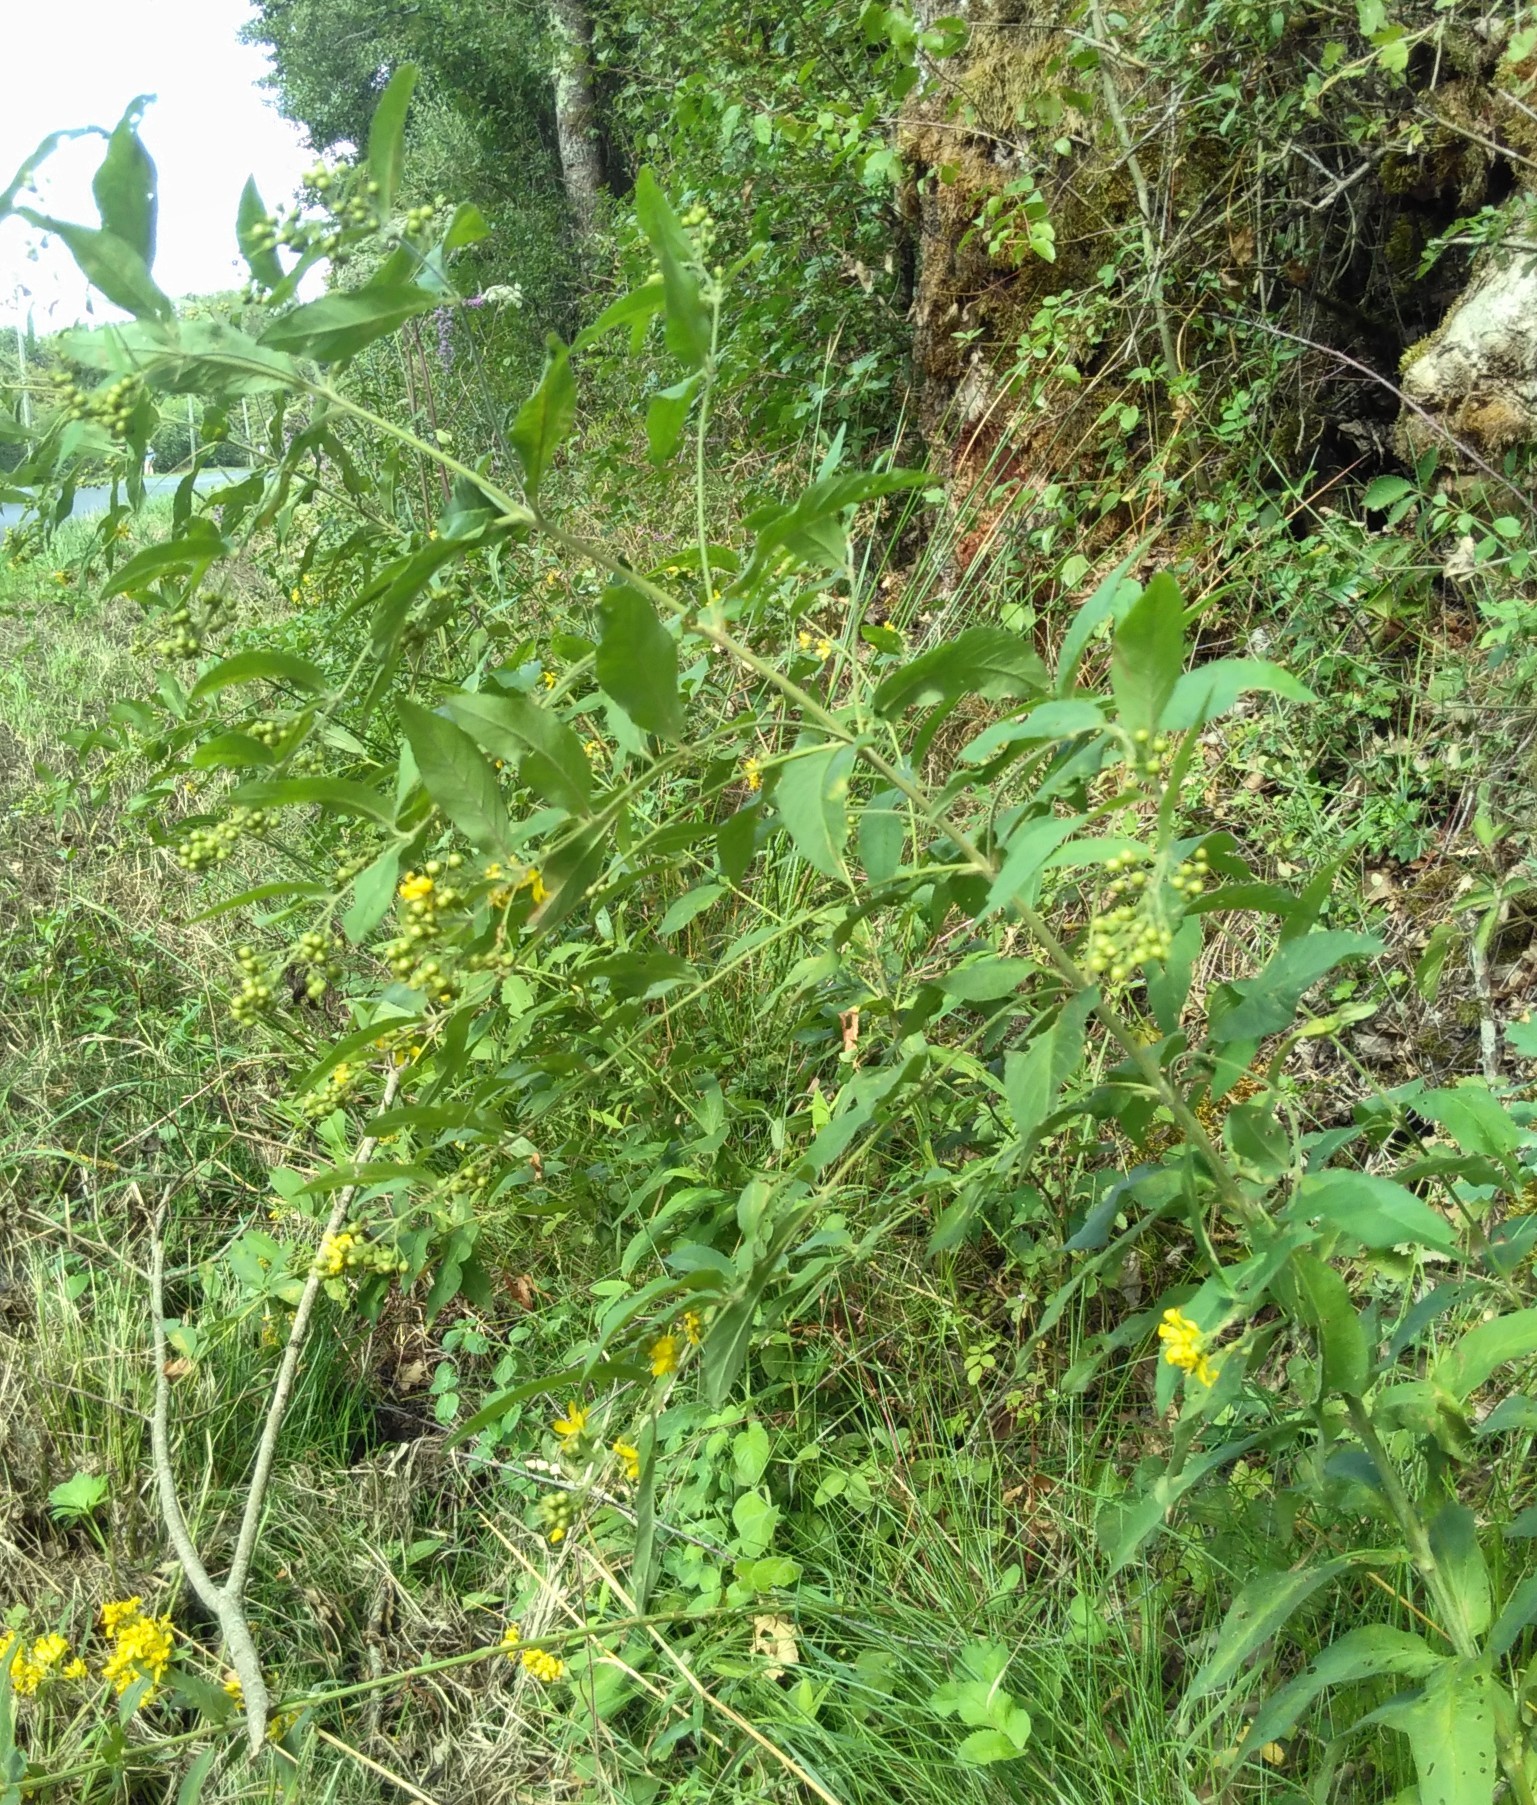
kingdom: Plantae
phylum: Tracheophyta
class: Magnoliopsida
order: Ericales
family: Primulaceae
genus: Lysimachia
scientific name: Lysimachia vulgaris
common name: Yellow loosestrife
